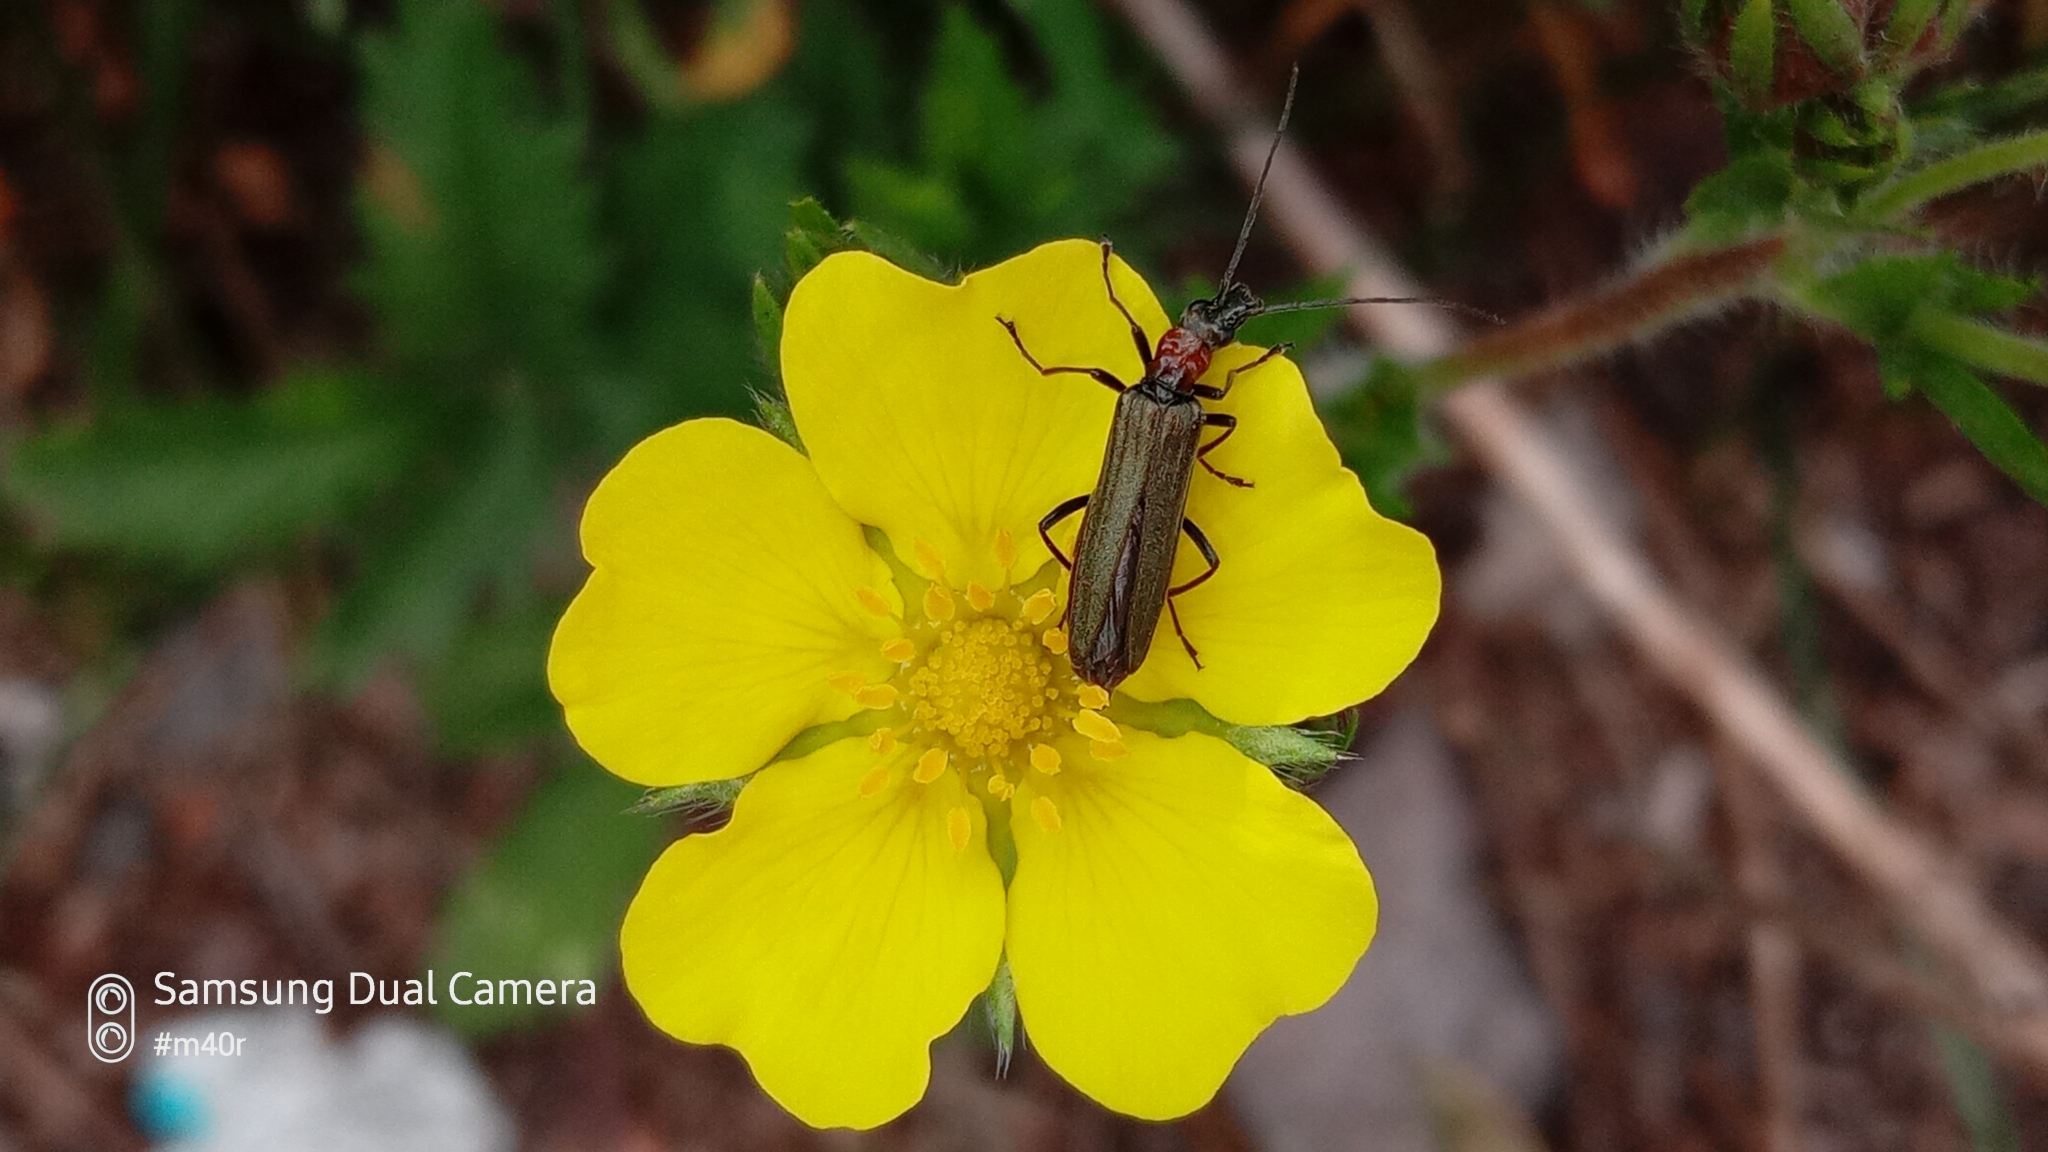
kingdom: Animalia
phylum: Arthropoda
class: Insecta
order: Coleoptera
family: Oedemeridae
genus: Oedemera
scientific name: Oedemera croceicollis
